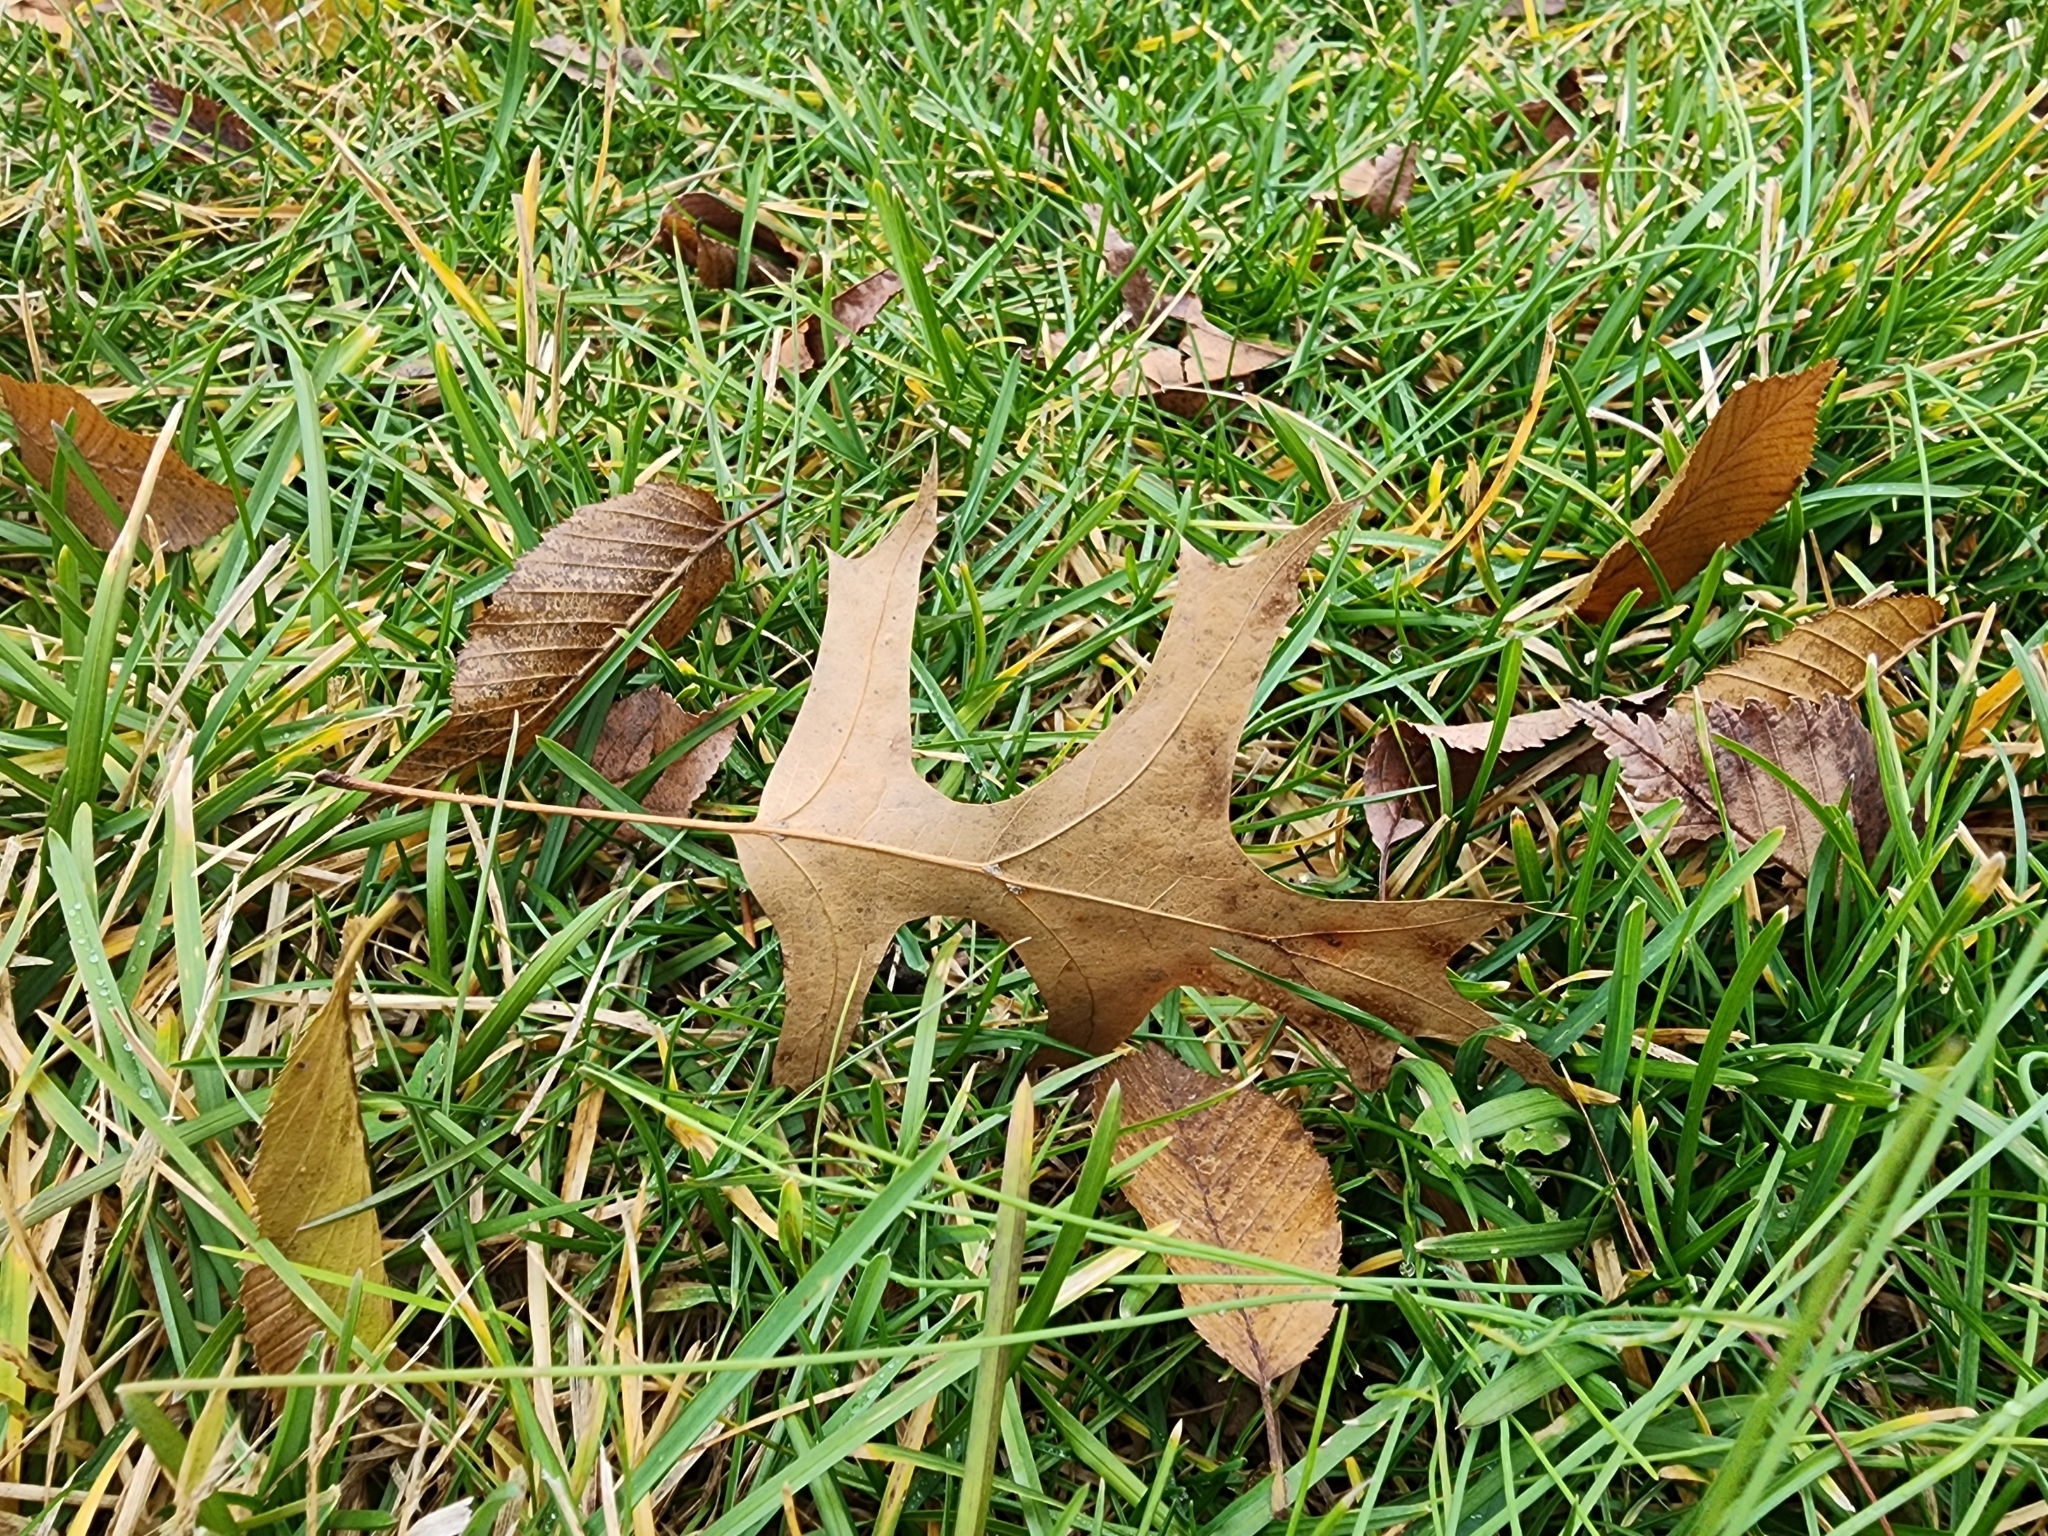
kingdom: Plantae
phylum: Tracheophyta
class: Magnoliopsida
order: Fagales
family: Fagaceae
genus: Quercus
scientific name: Quercus palustris
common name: Pin oak
